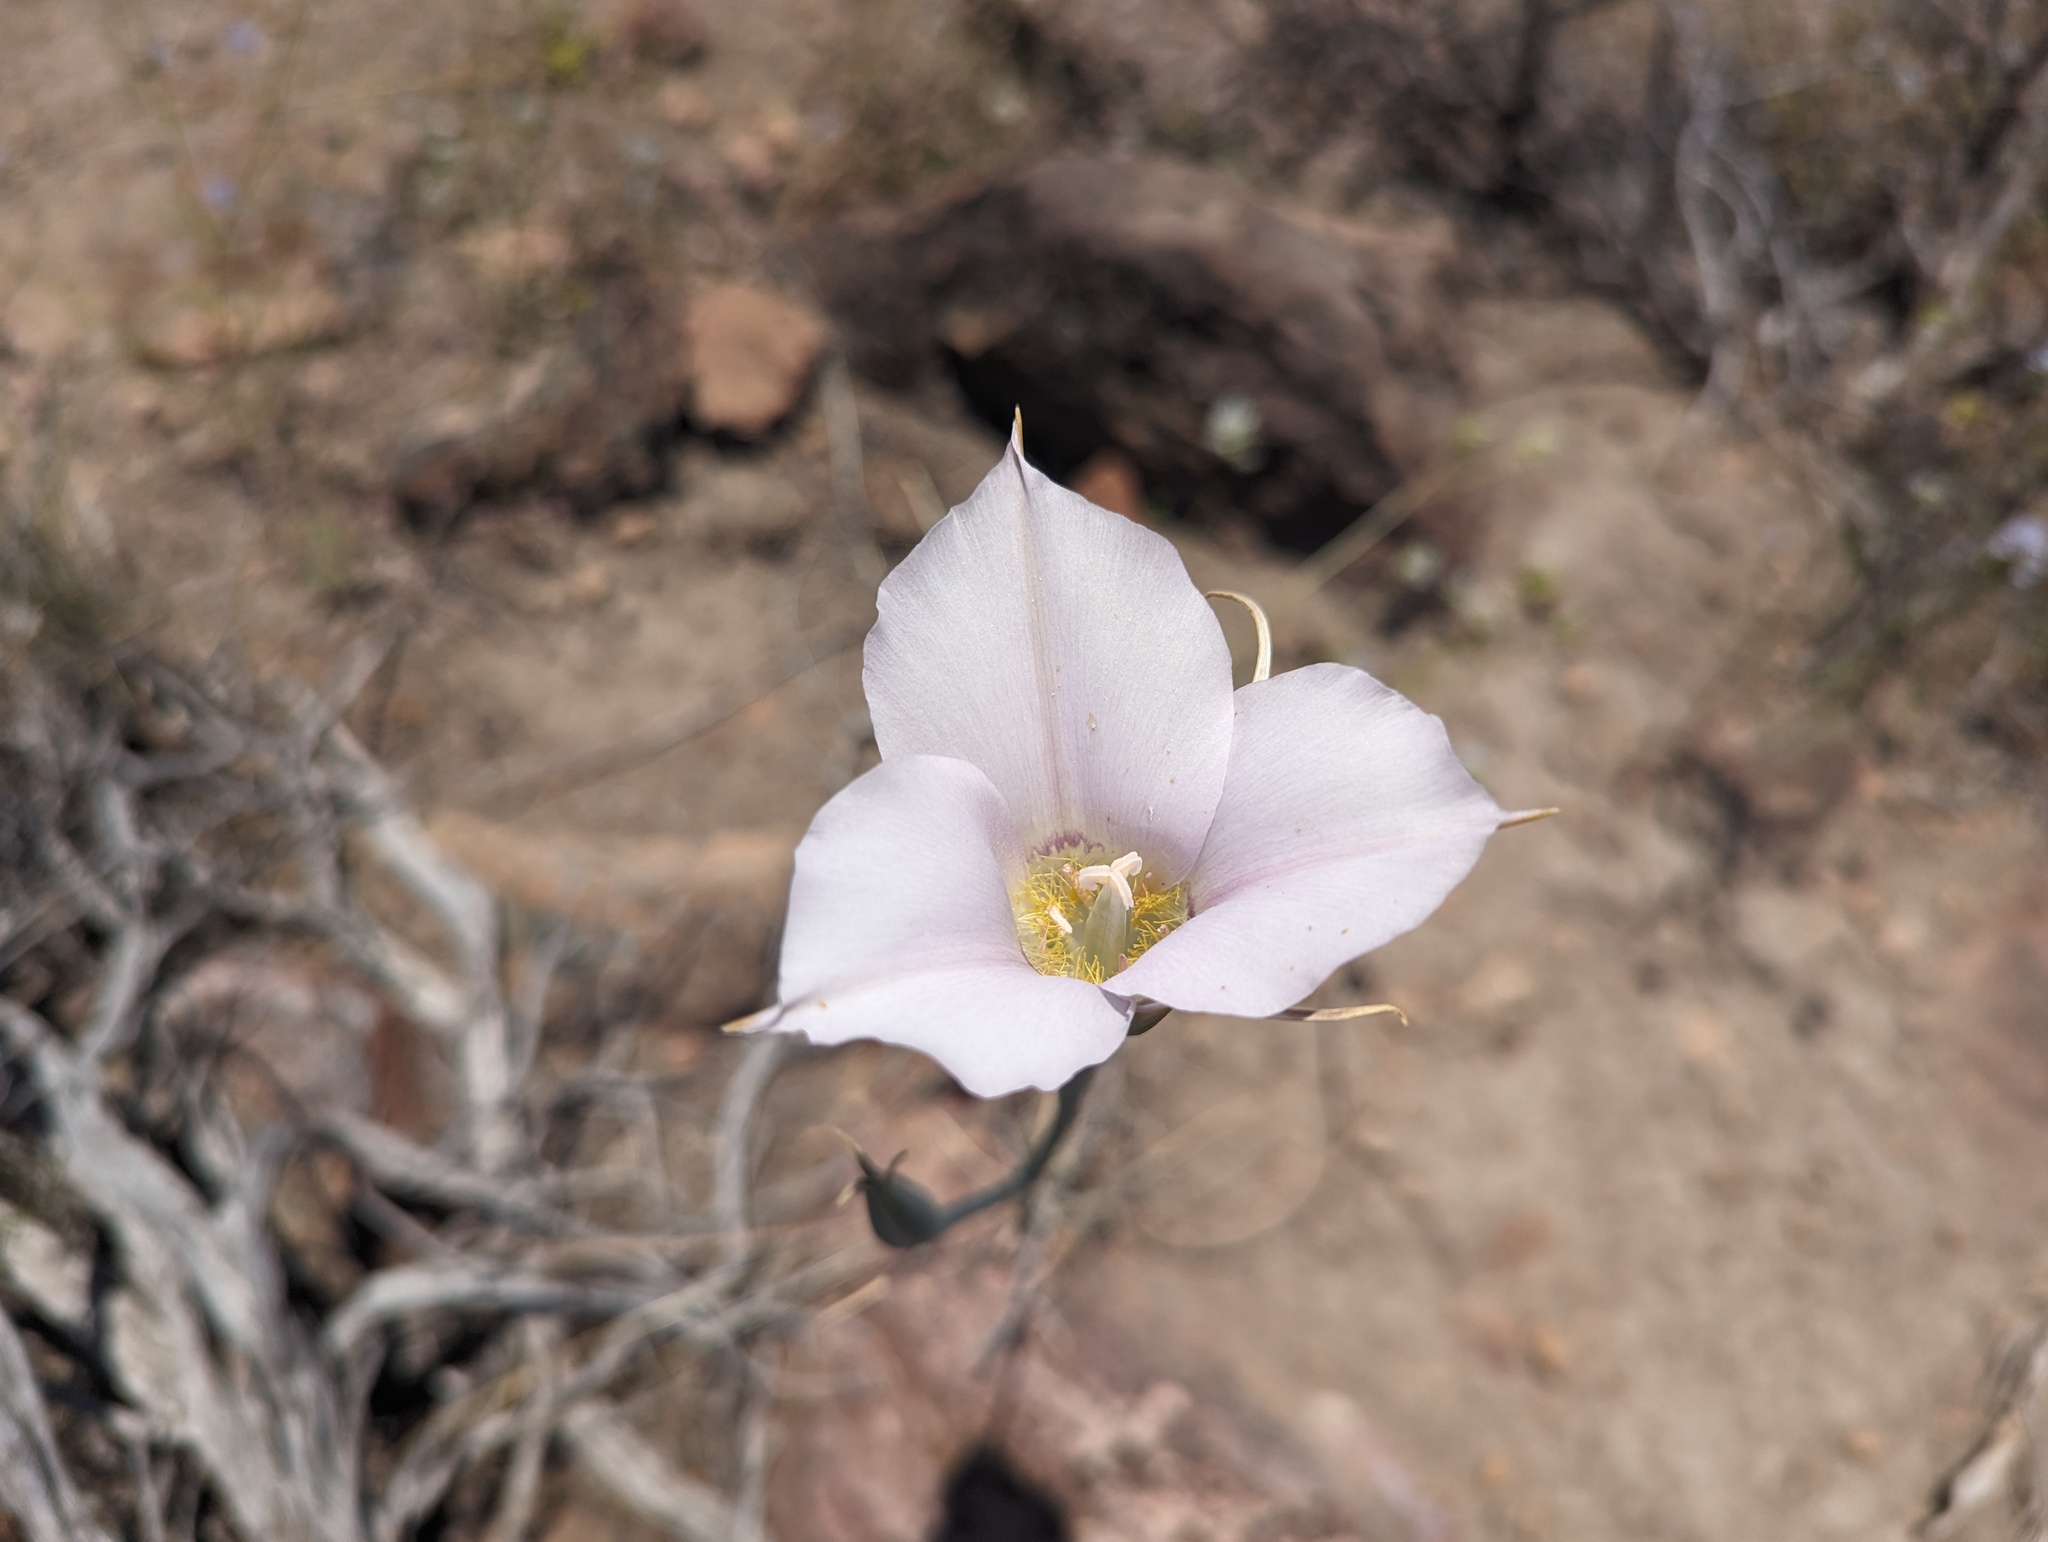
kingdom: Plantae
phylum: Tracheophyta
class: Liliopsida
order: Liliales
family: Liliaceae
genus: Calochortus
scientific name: Calochortus macrocarpus
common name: Green-band mariposa lily
